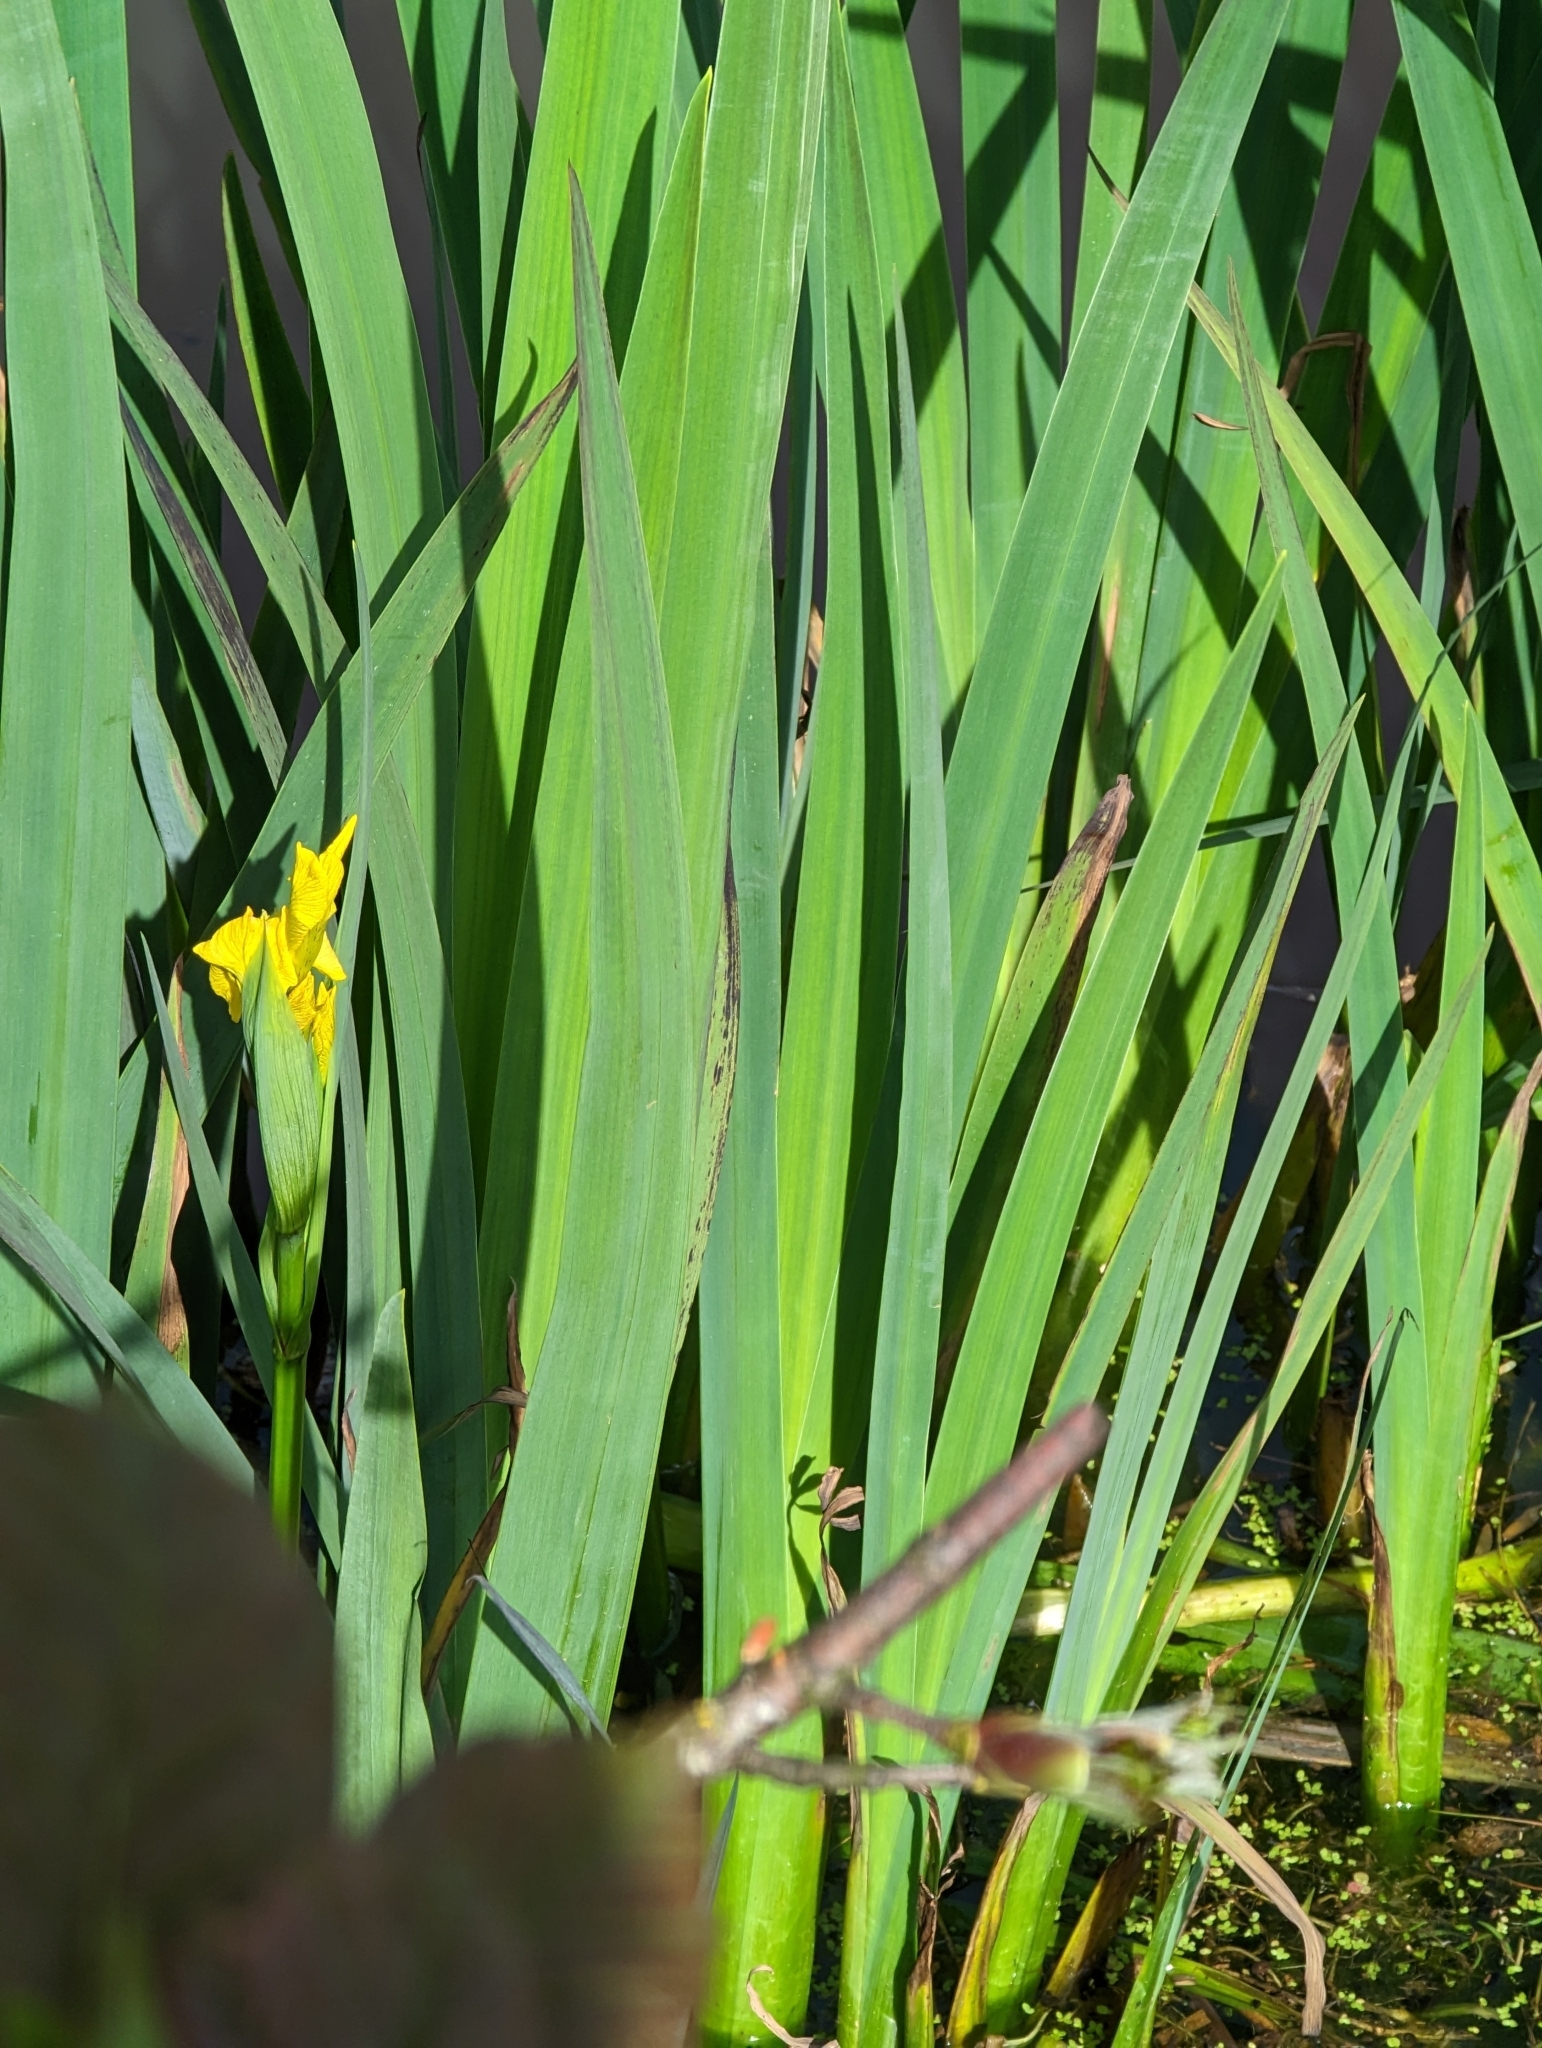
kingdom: Plantae
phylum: Tracheophyta
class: Liliopsida
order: Asparagales
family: Iridaceae
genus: Iris
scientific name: Iris pseudacorus
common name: Yellow flag
